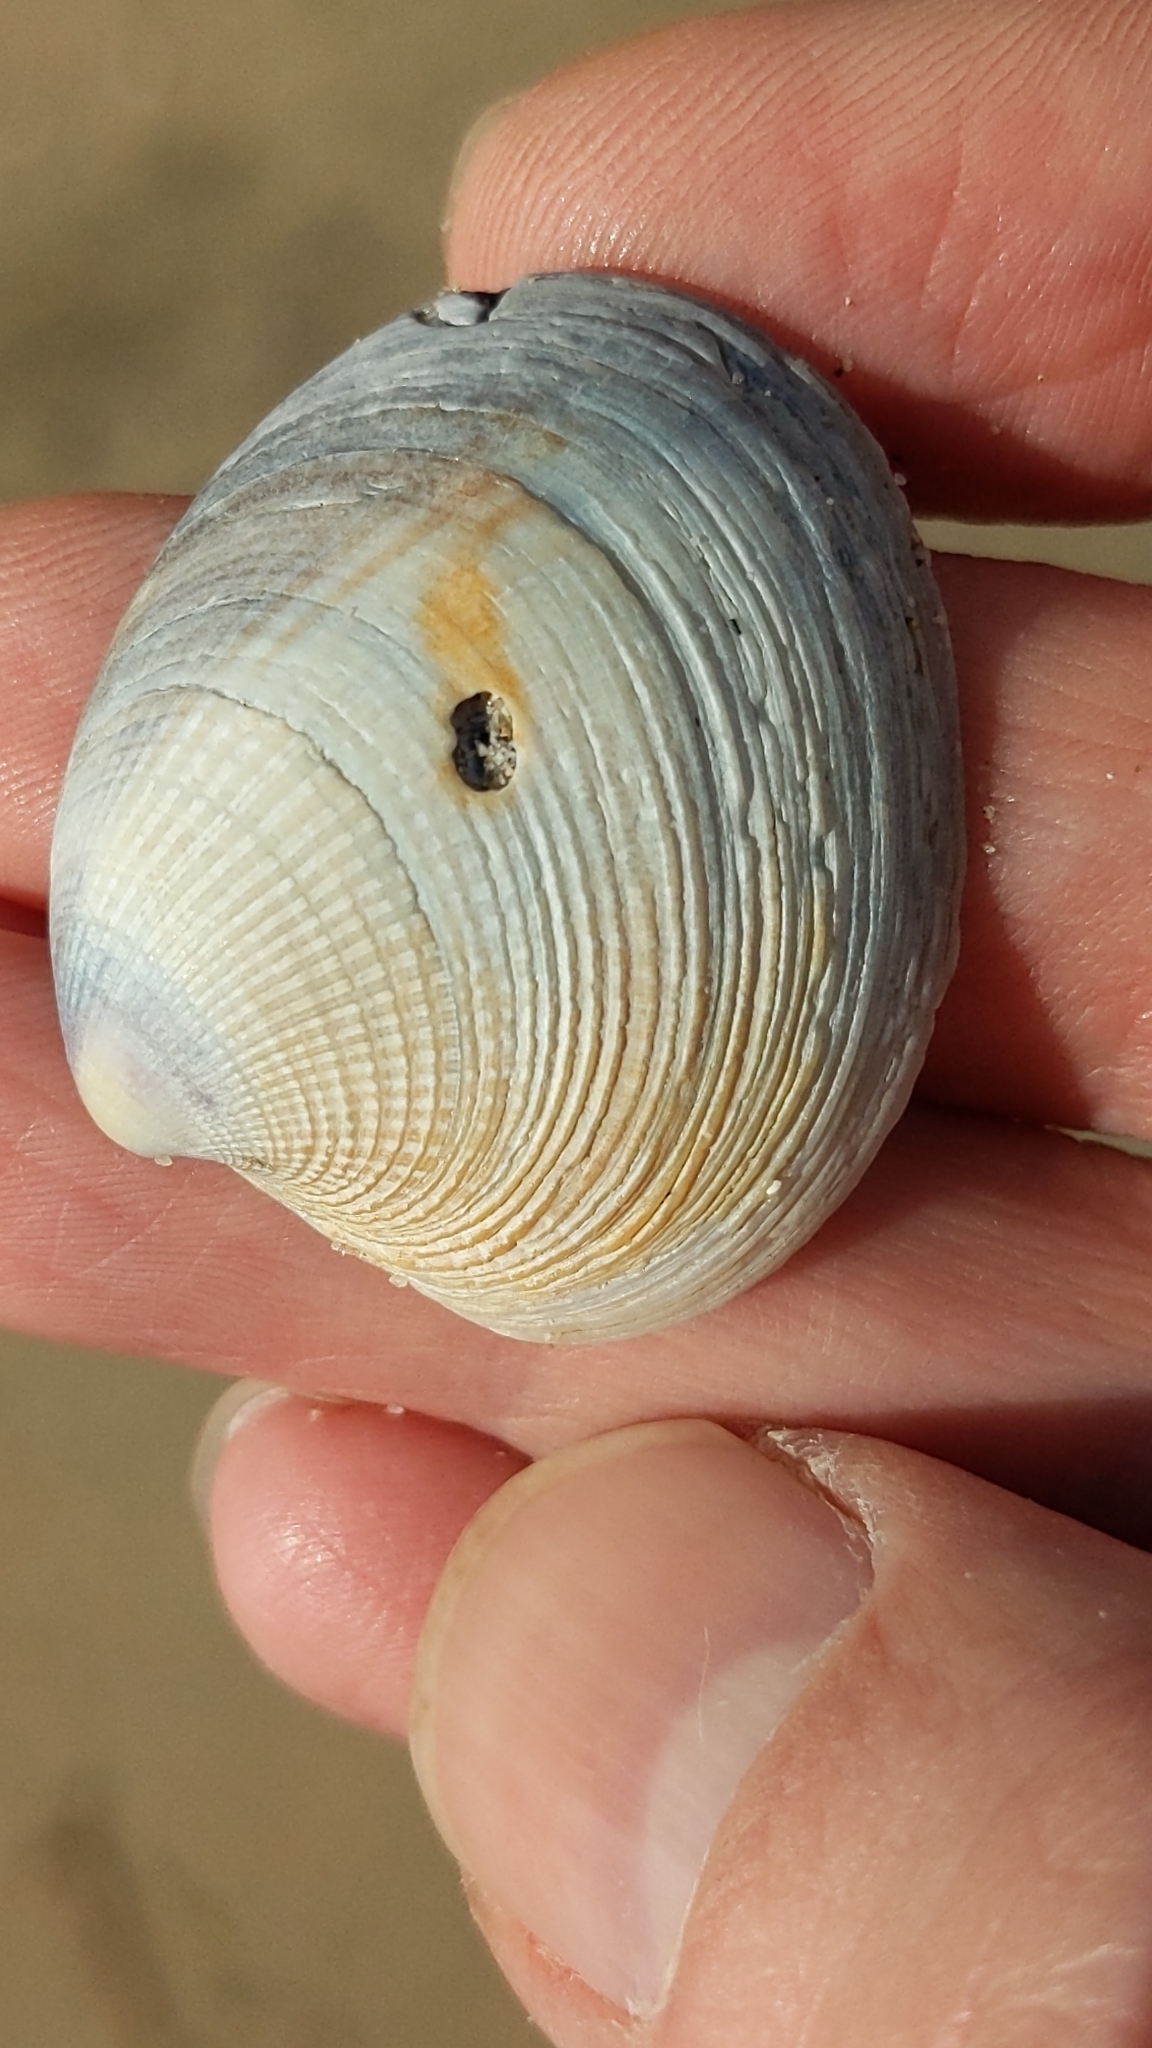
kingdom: Animalia
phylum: Mollusca
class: Bivalvia
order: Venerida
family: Veneridae
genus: Austrovenus
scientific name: Austrovenus stutchburyi
